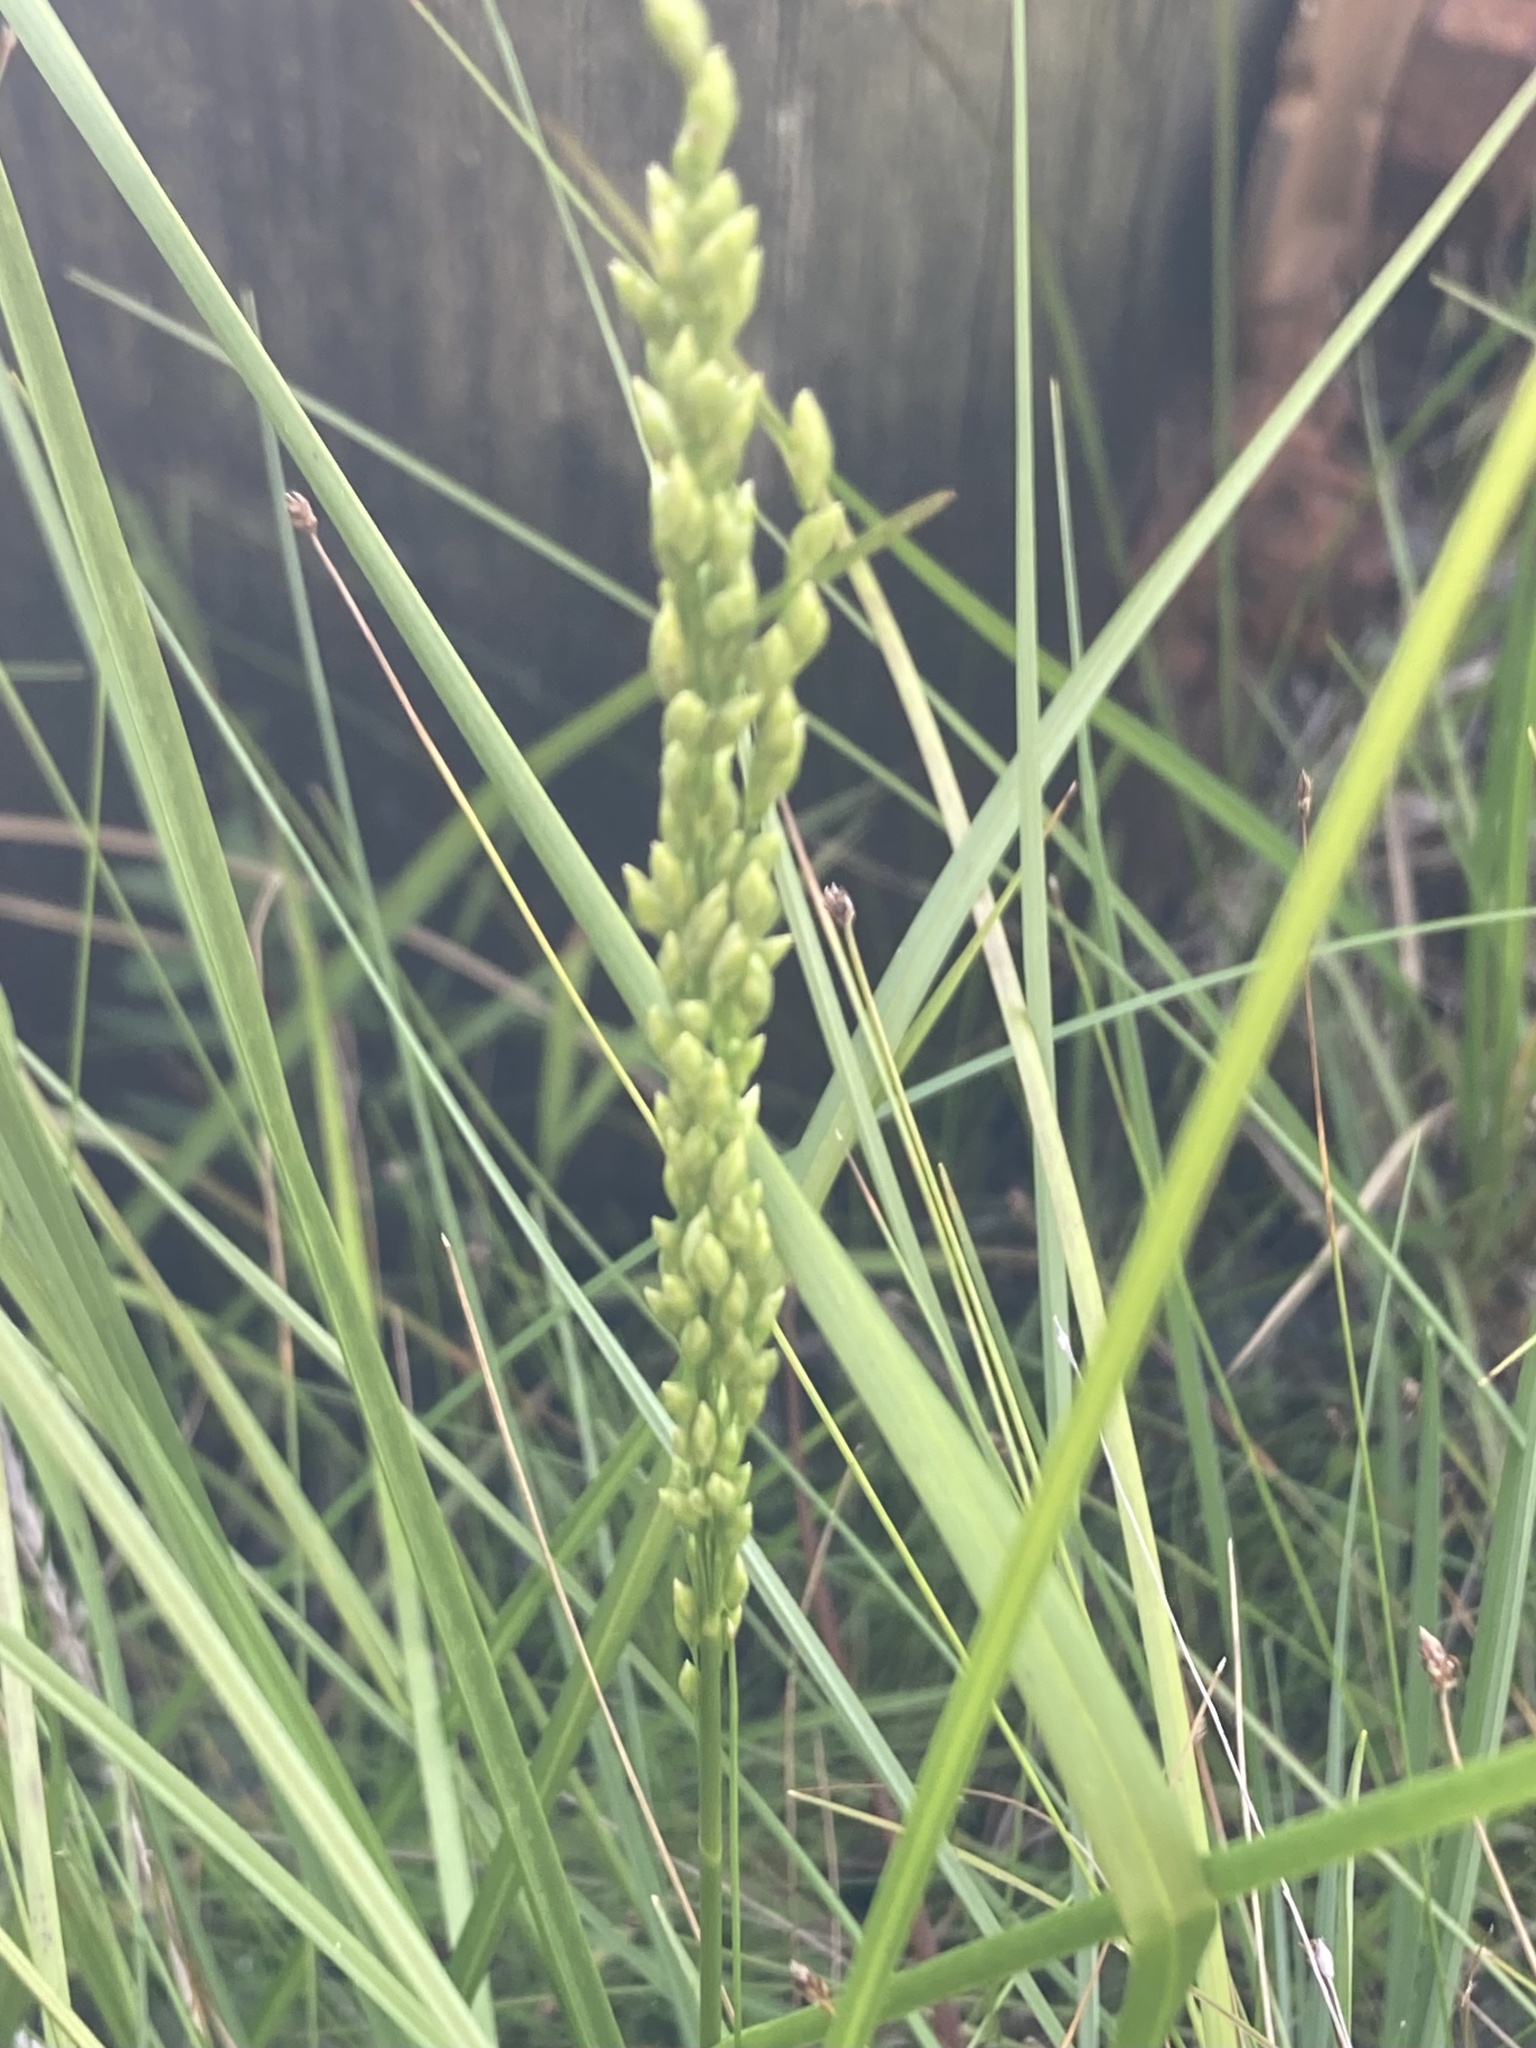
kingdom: Plantae
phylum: Tracheophyta
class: Liliopsida
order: Poales
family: Poaceae
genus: Glyceria
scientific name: Glyceria obtusa
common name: Atlantic mannagrass
